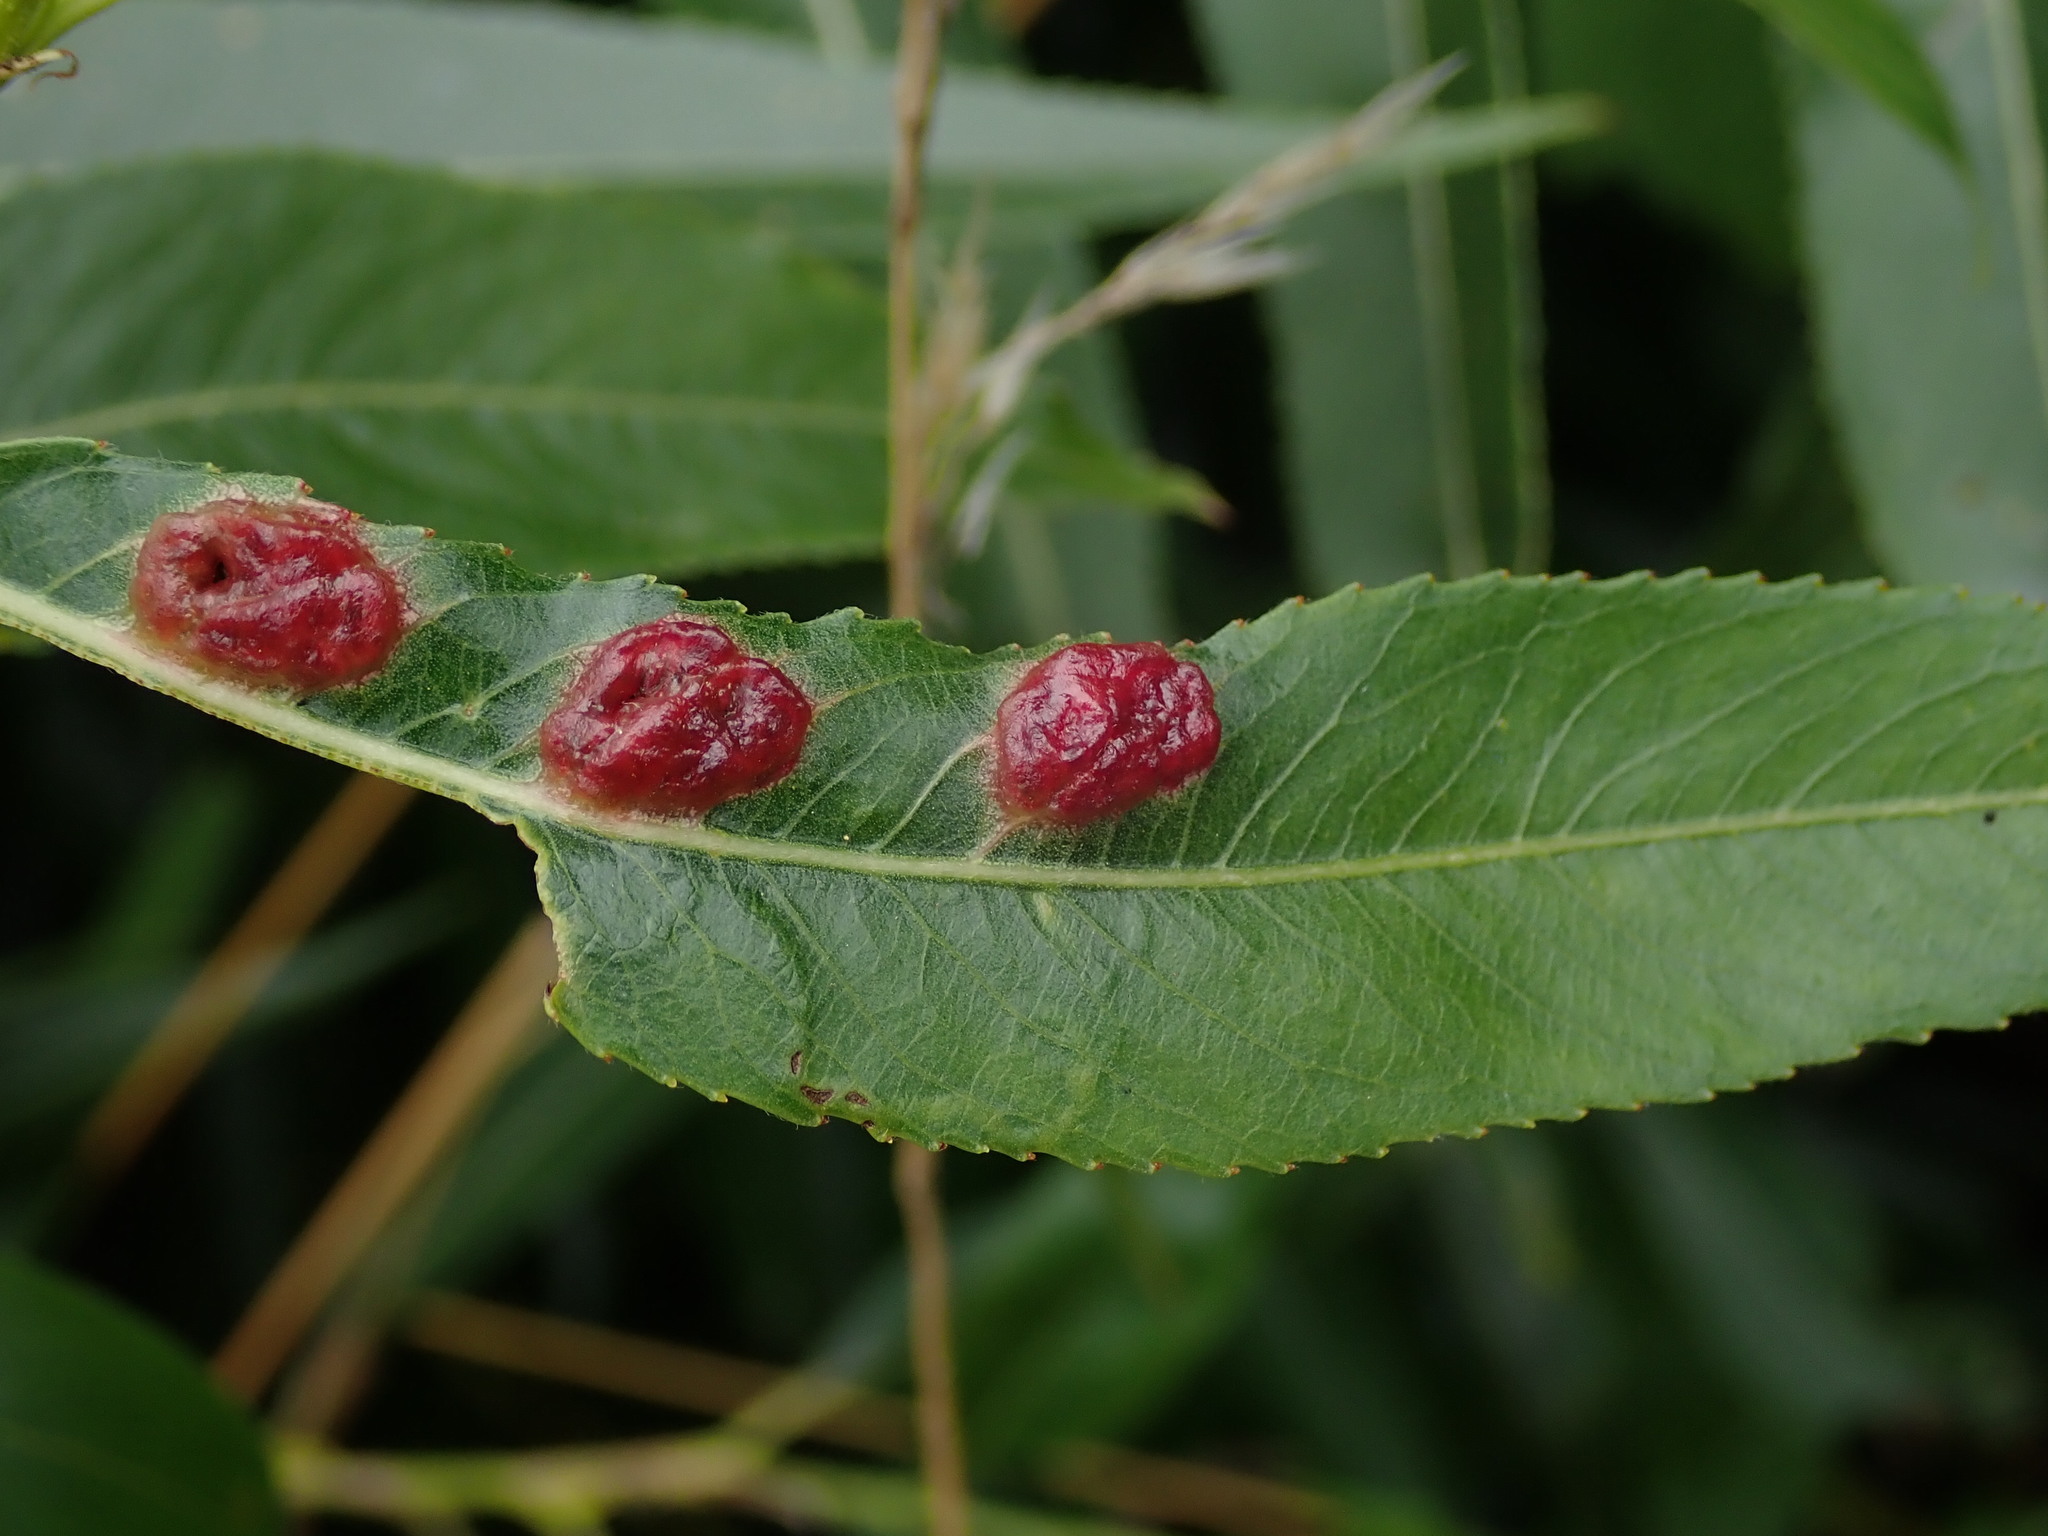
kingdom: Animalia
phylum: Arthropoda
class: Insecta
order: Hymenoptera
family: Tenthredinidae
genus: Pontania
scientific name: Pontania proxima
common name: Common sawfly
